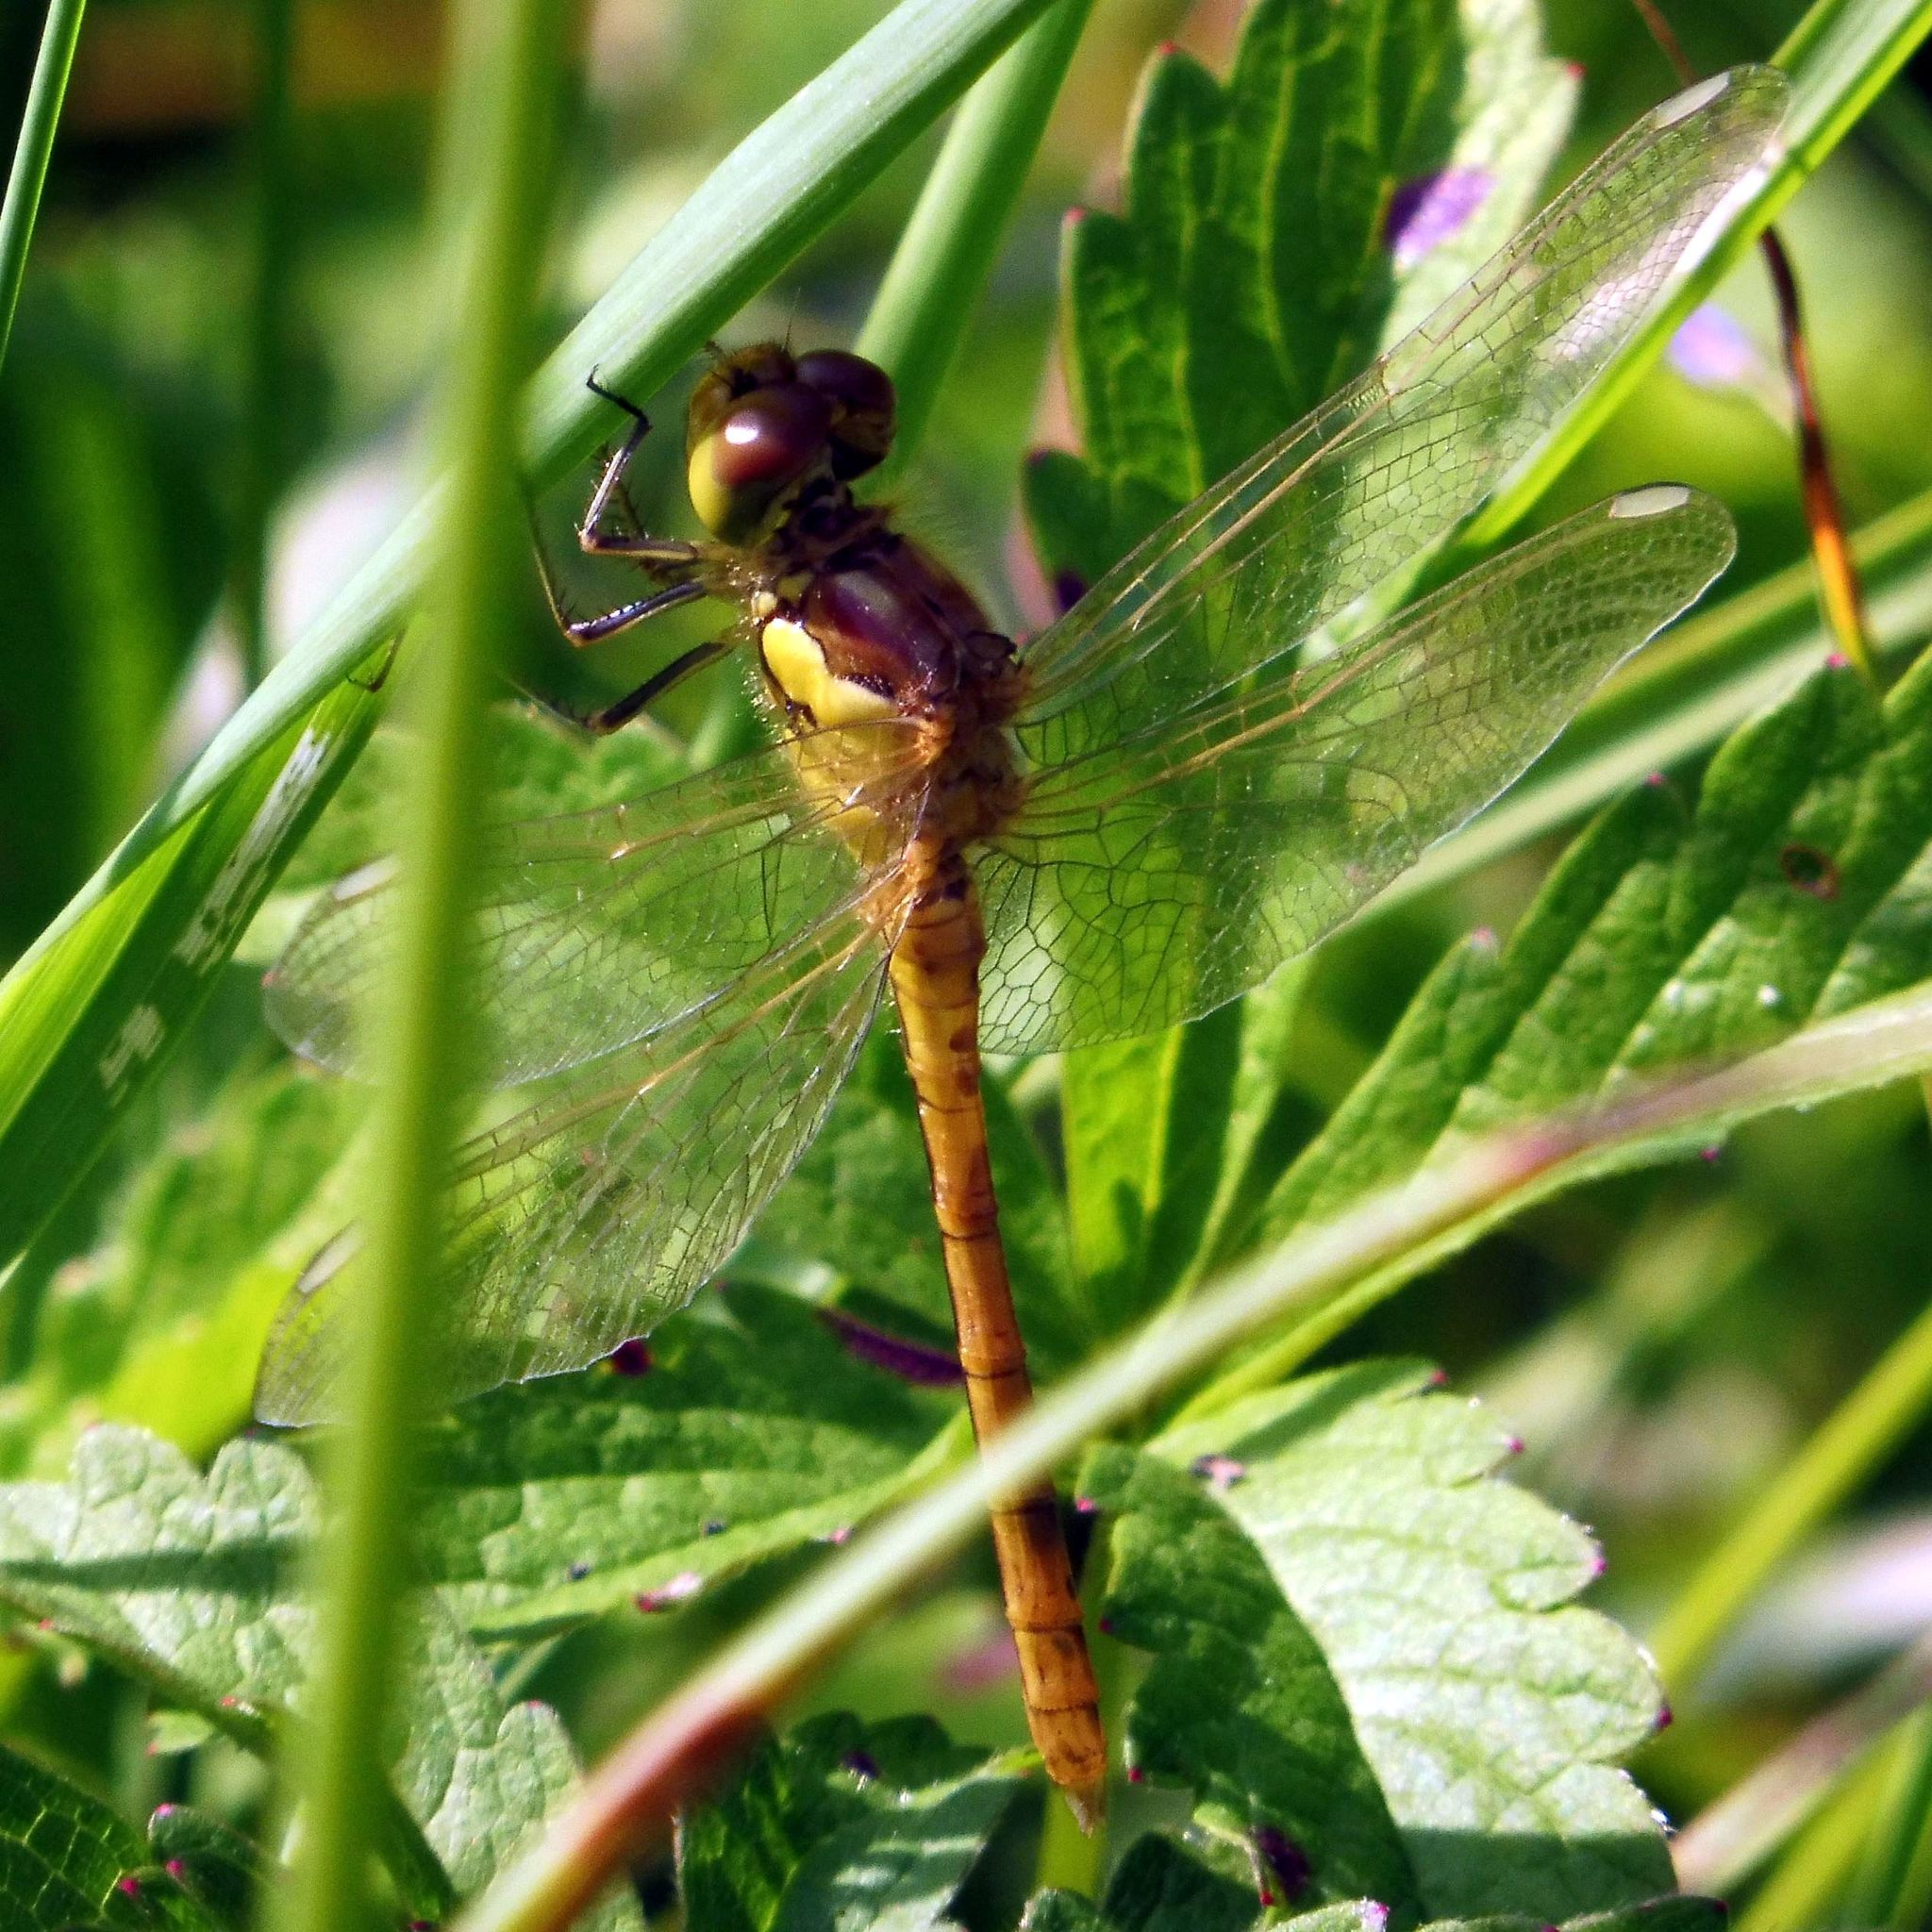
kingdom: Animalia
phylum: Arthropoda
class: Insecta
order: Odonata
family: Libellulidae
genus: Sympetrum
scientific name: Sympetrum striolatum
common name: Common darter
